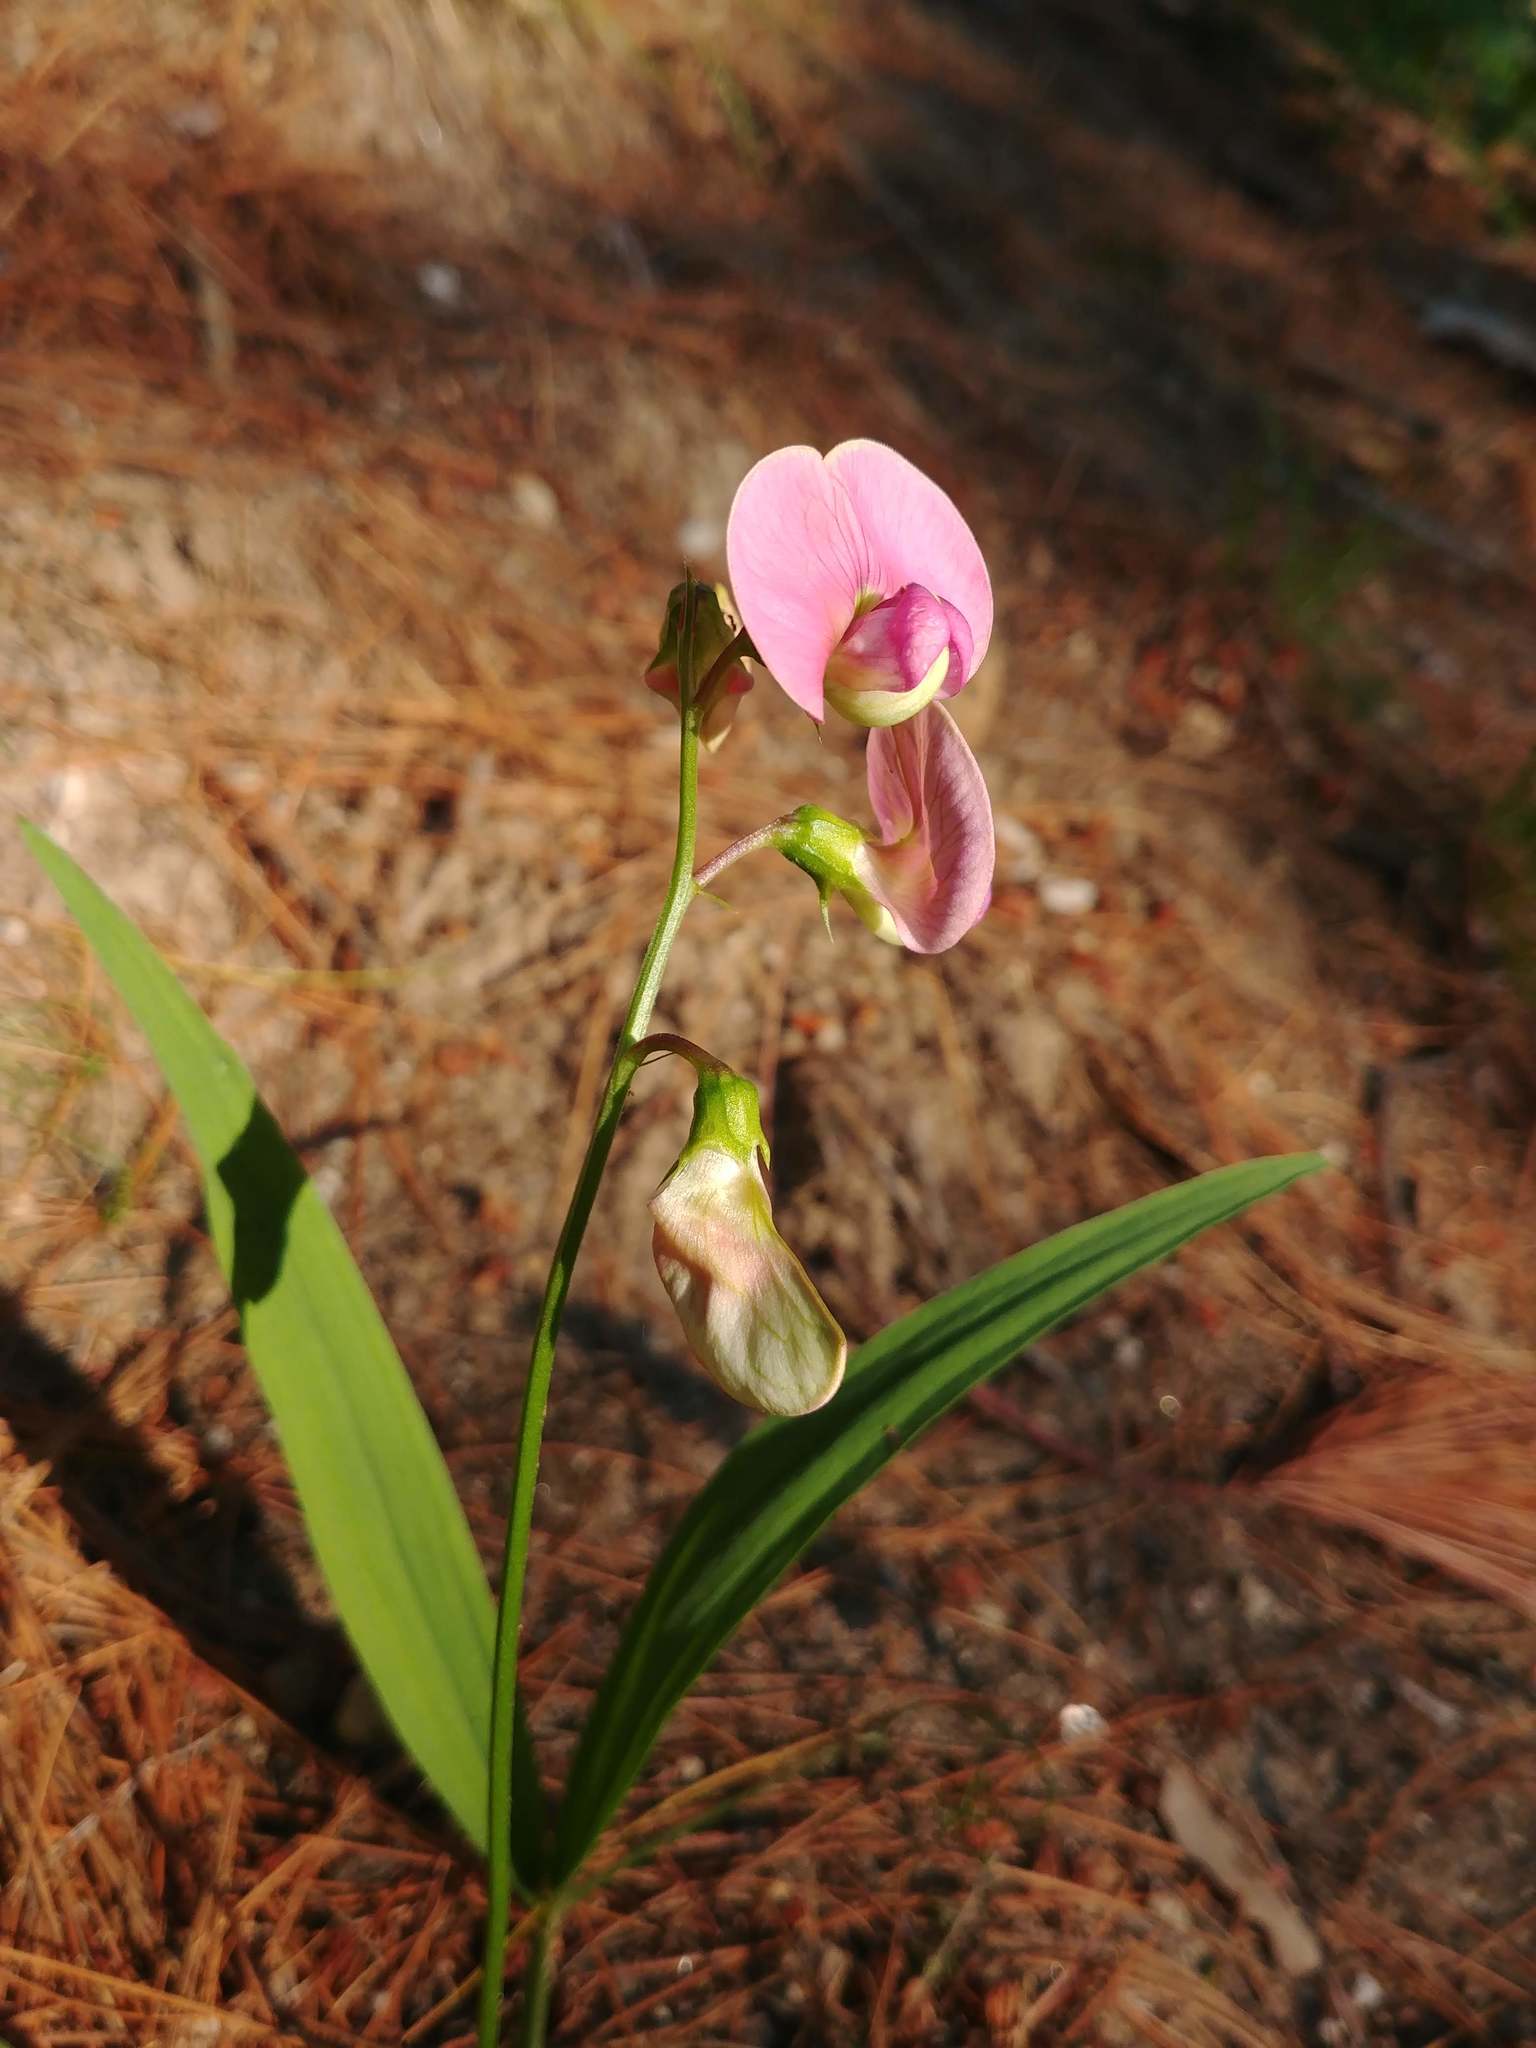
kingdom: Plantae
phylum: Tracheophyta
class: Magnoliopsida
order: Fabales
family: Fabaceae
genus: Lathyrus
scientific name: Lathyrus sylvestris
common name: Flat pea
